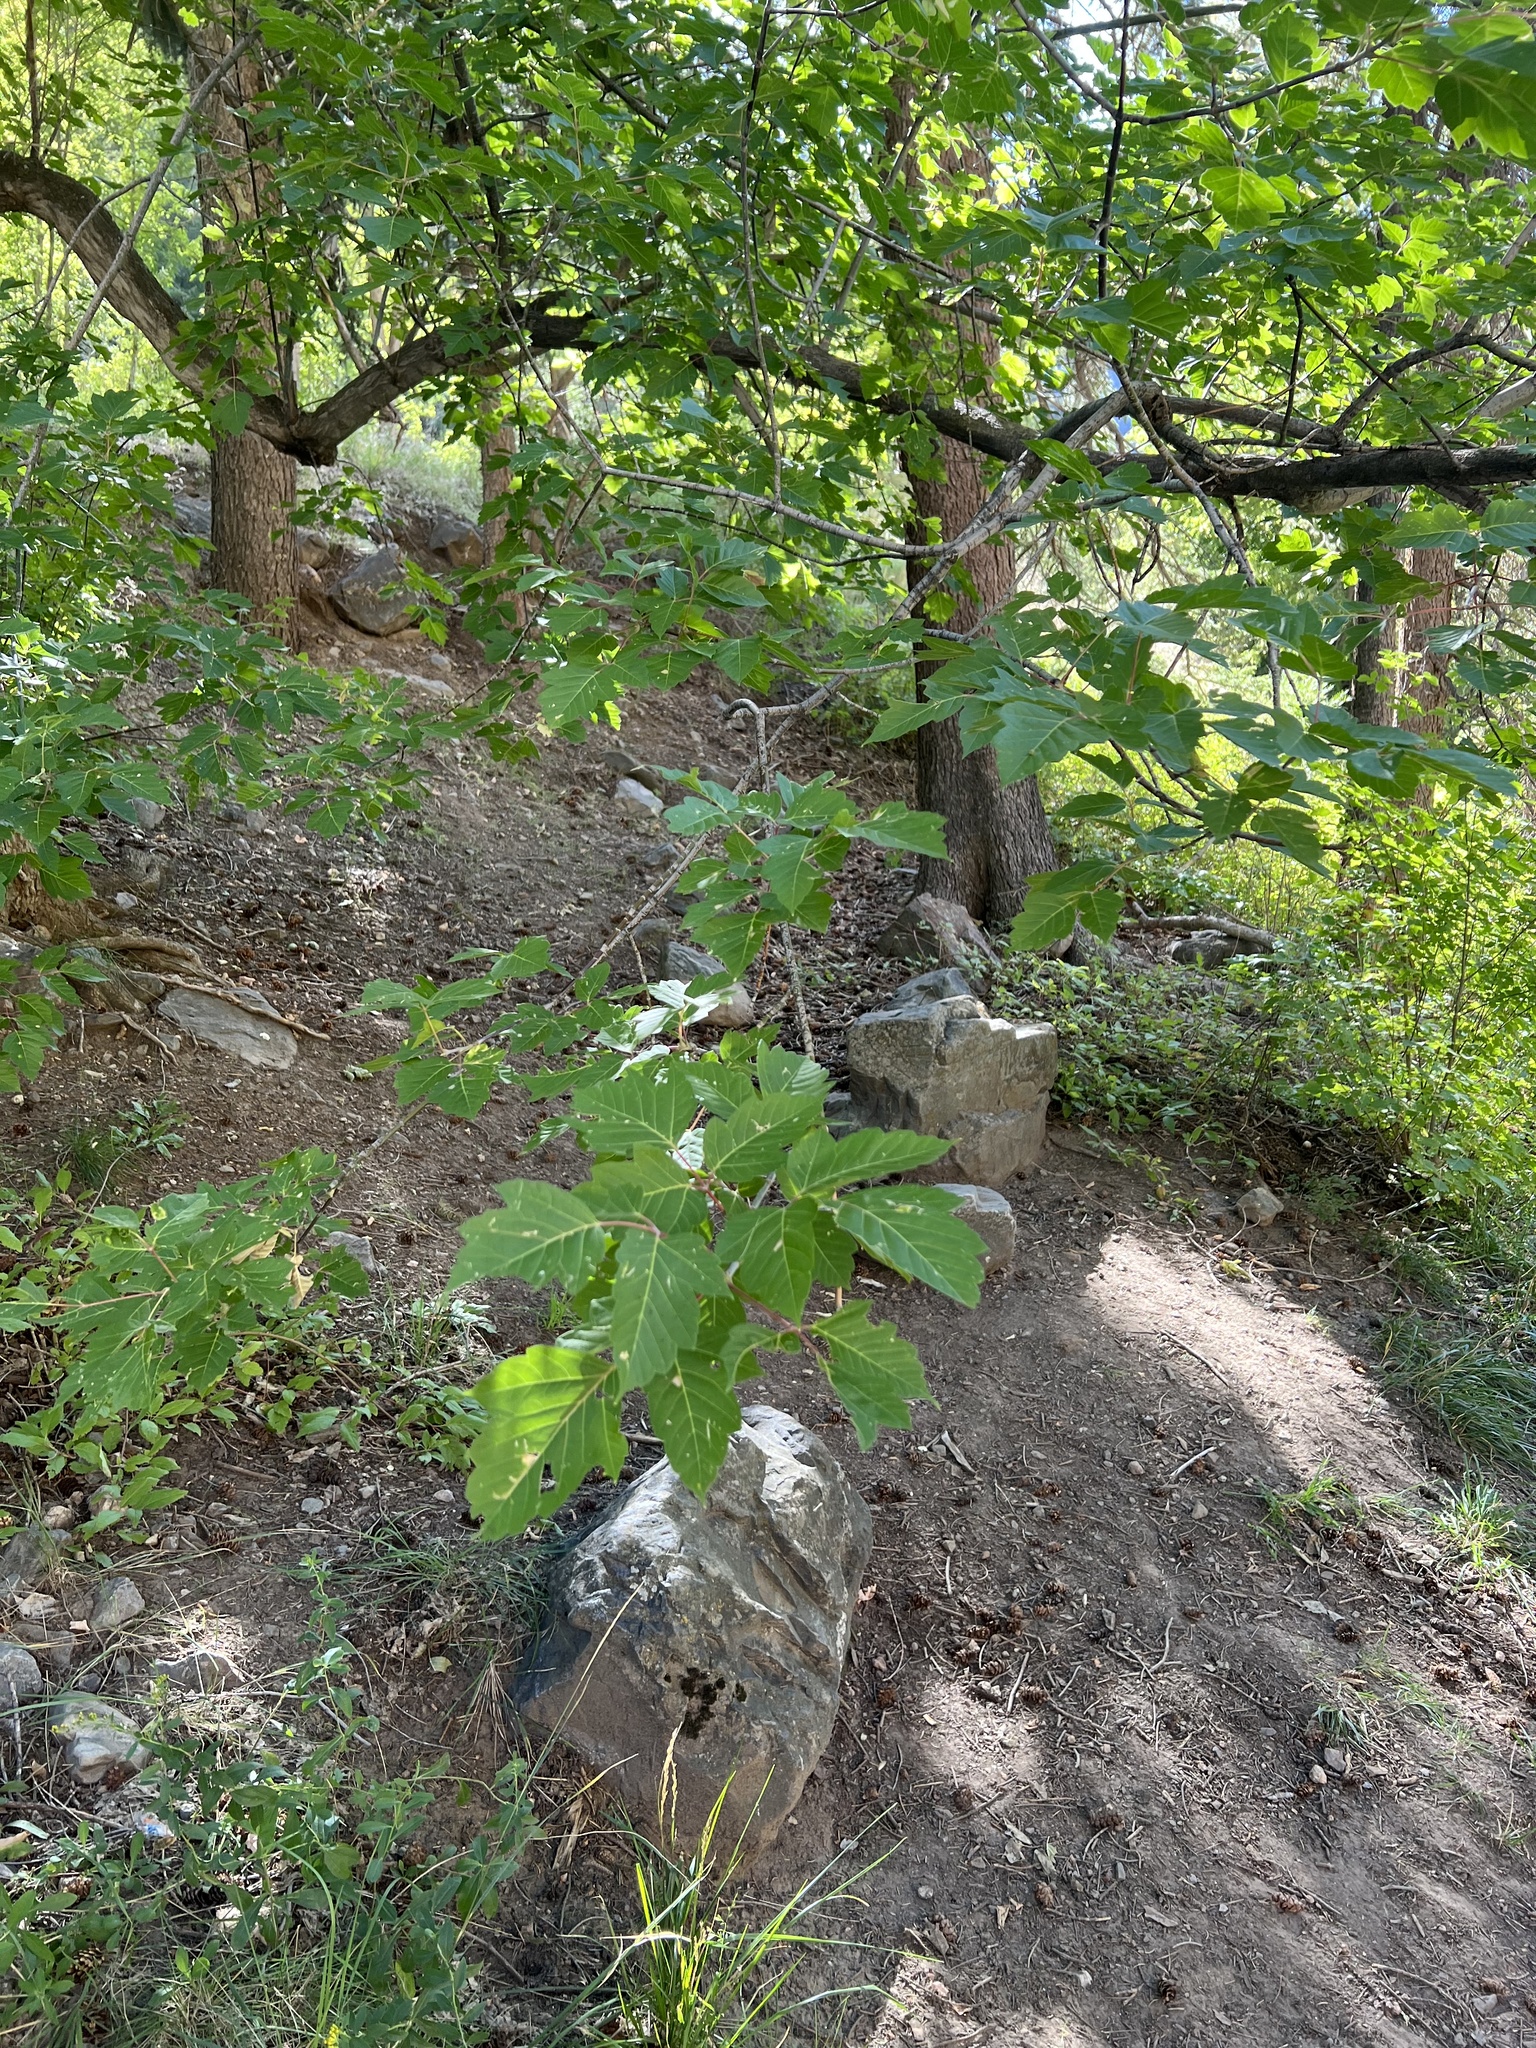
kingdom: Plantae
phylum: Tracheophyta
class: Magnoliopsida
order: Sapindales
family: Sapindaceae
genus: Acer
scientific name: Acer negundo
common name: Ashleaf maple
